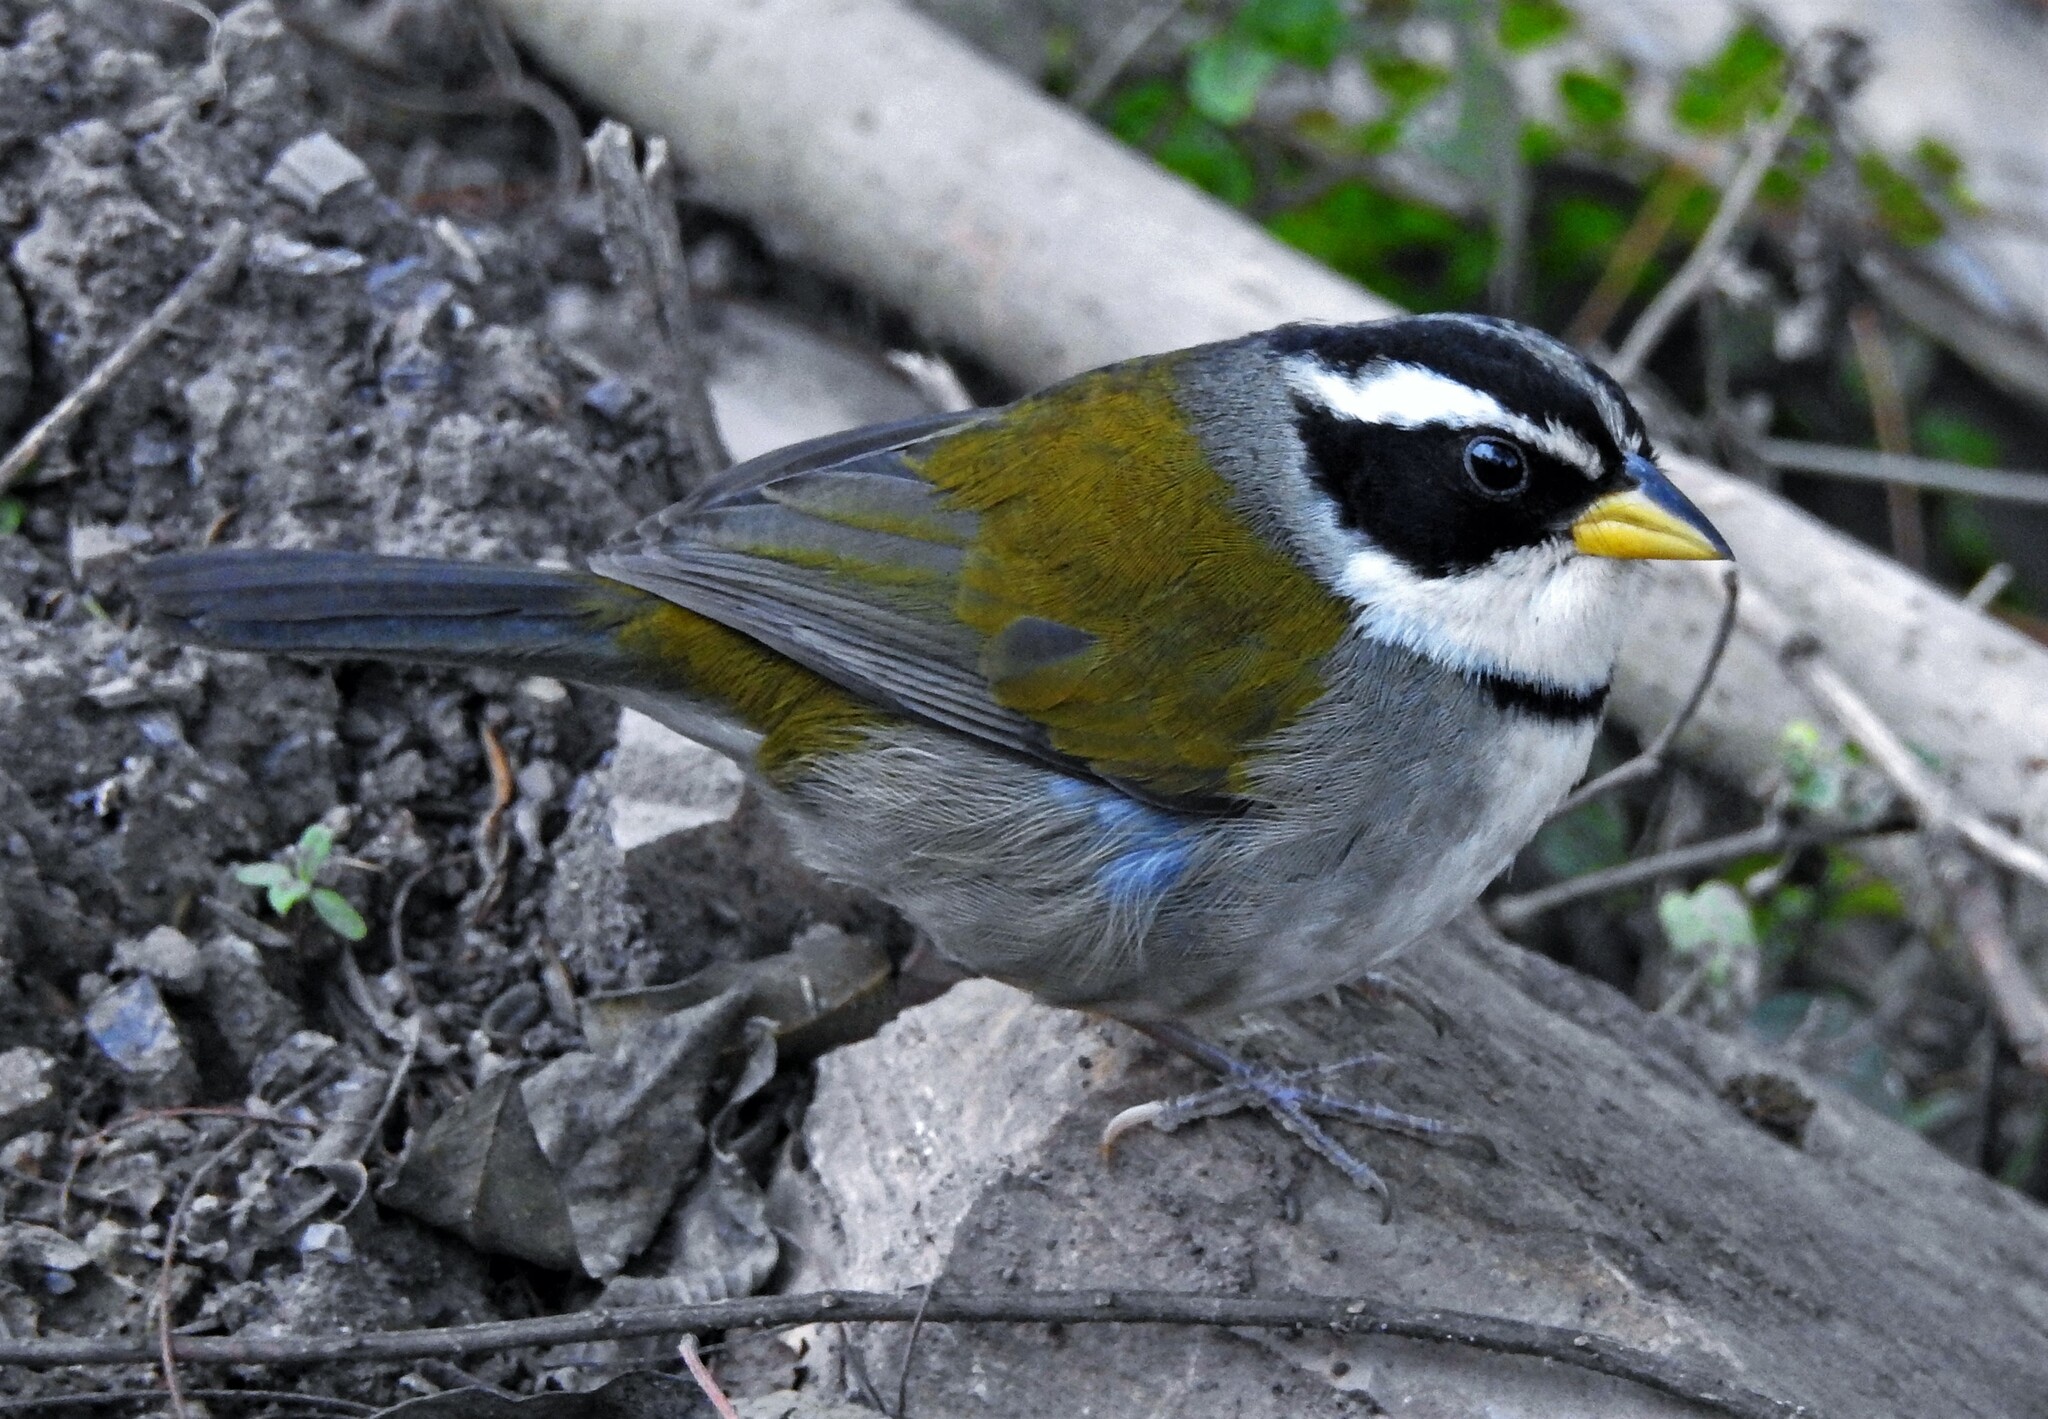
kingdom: Animalia
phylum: Chordata
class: Aves
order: Passeriformes
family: Passerellidae
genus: Arremon
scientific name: Arremon dorbignii
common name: Moss-backed sparrow
